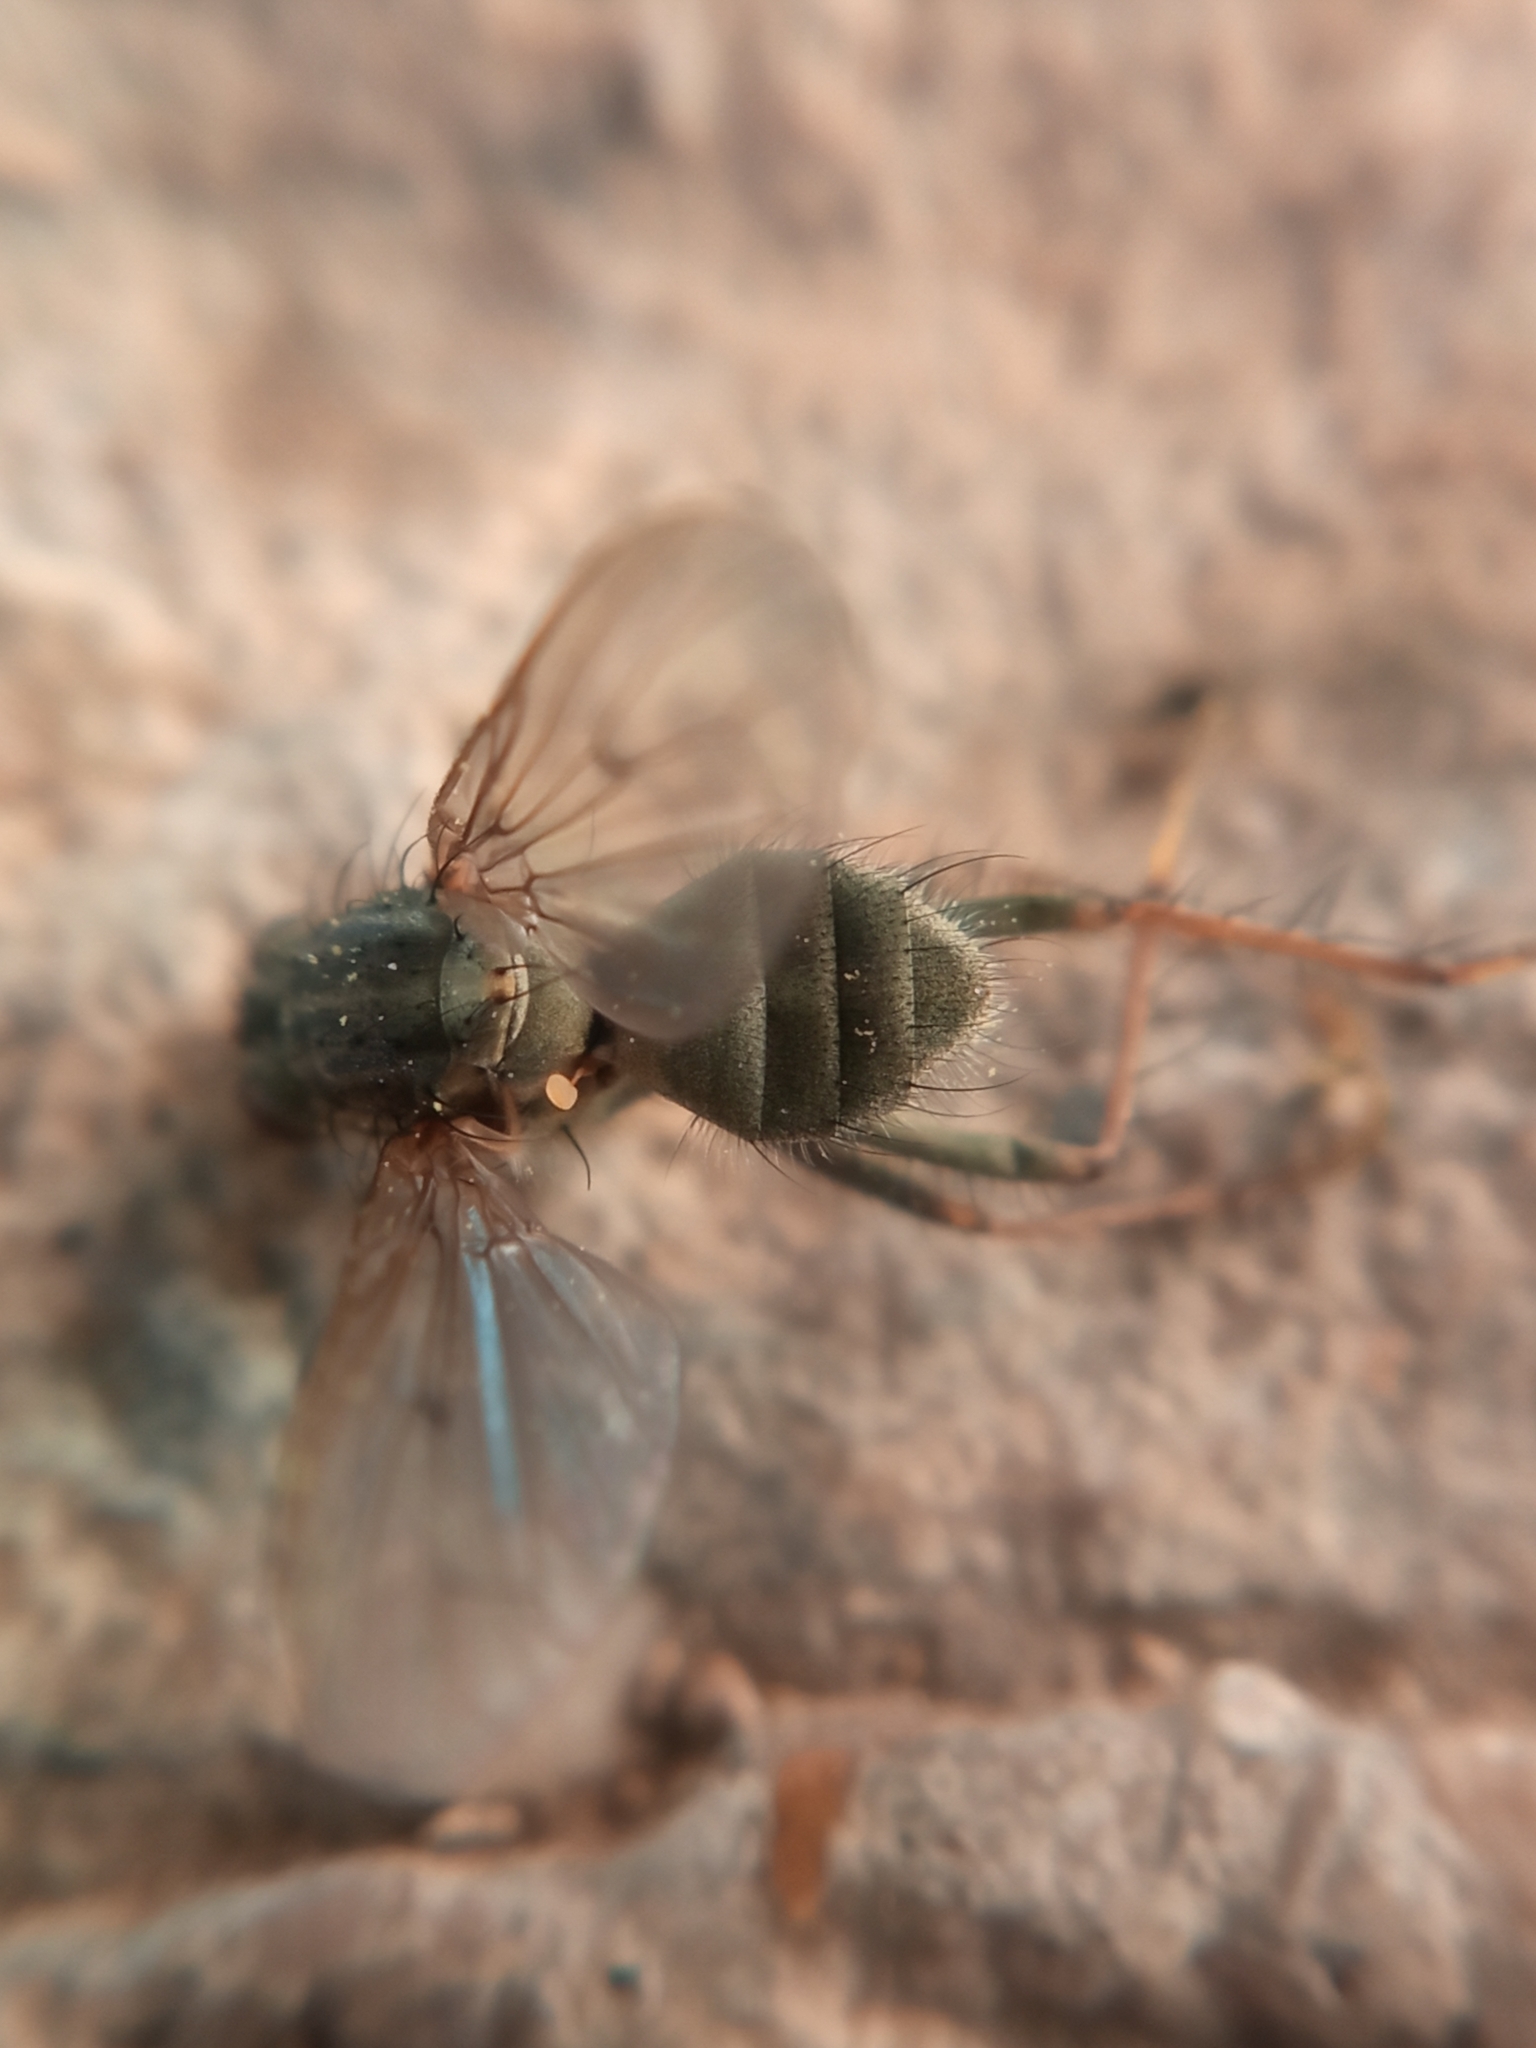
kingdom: Animalia
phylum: Arthropoda
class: Insecta
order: Diptera
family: Scathophagidae
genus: Scathophaga
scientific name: Scathophaga stercoraria
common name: Yellow dung fly
